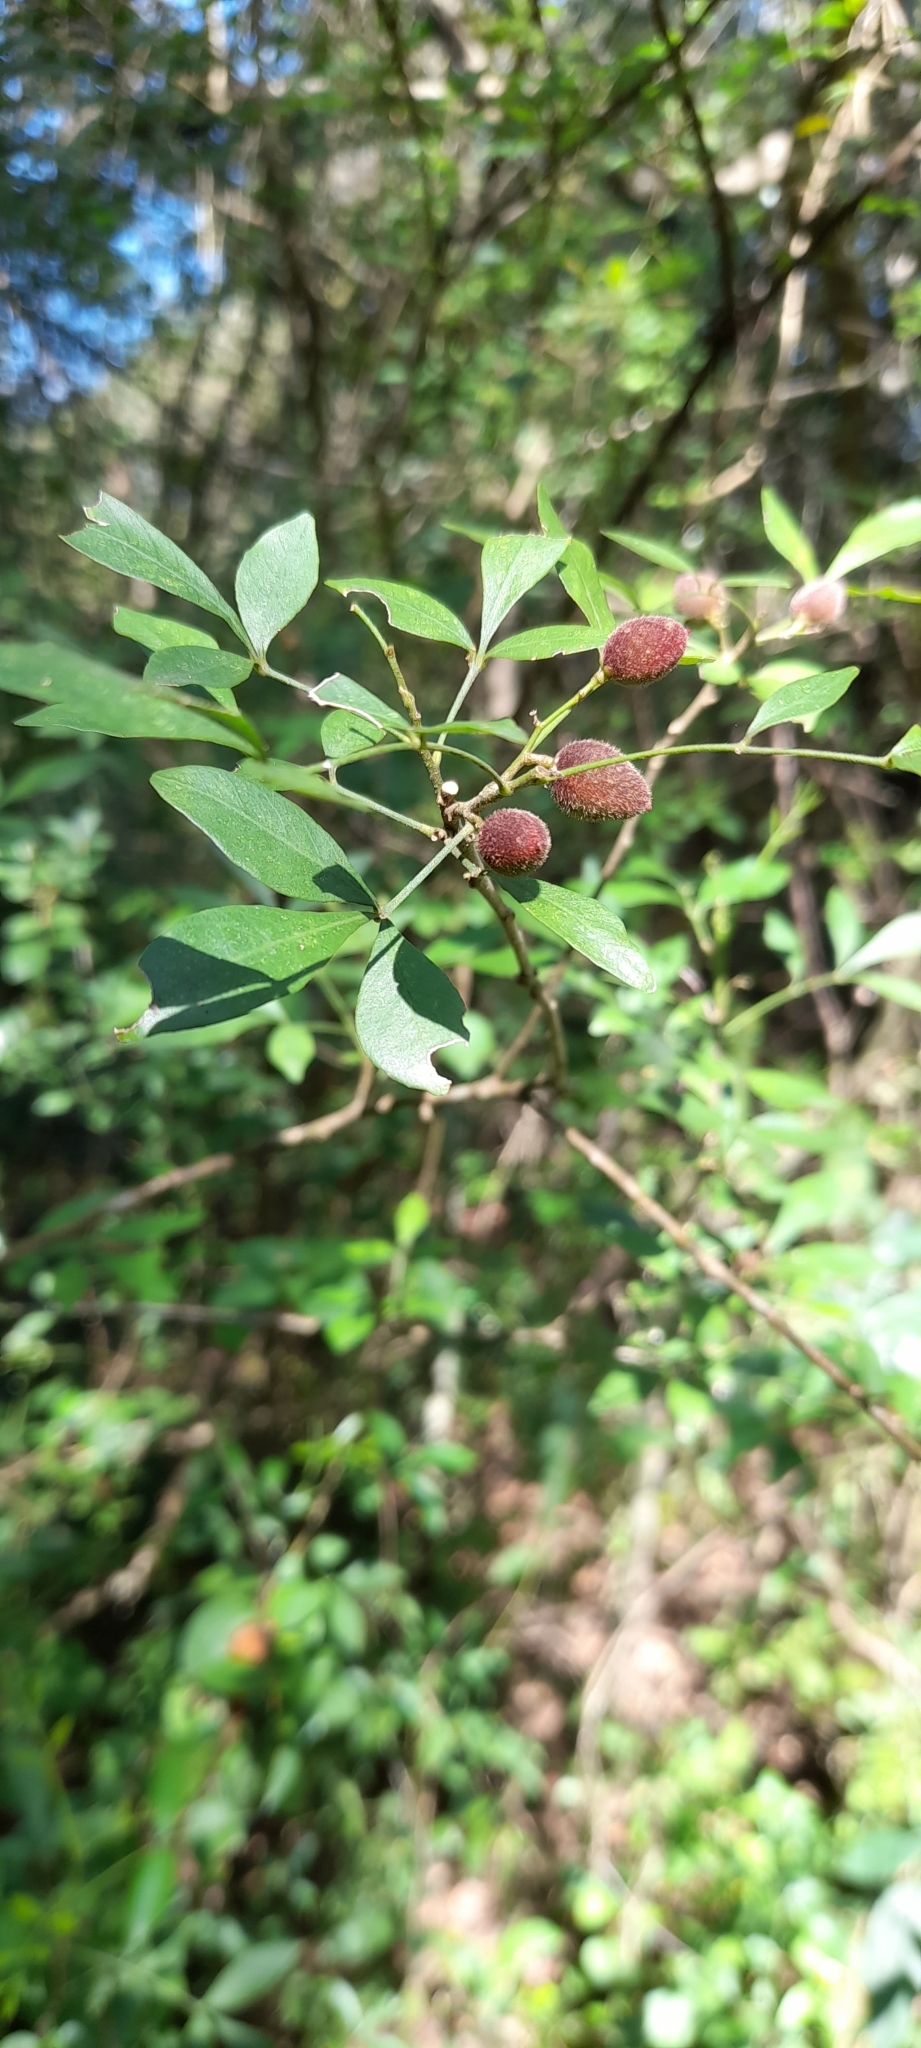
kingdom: Plantae
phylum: Tracheophyta
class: Magnoliopsida
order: Sapindales
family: Meliaceae
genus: Trichilia
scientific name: Trichilia elegans
